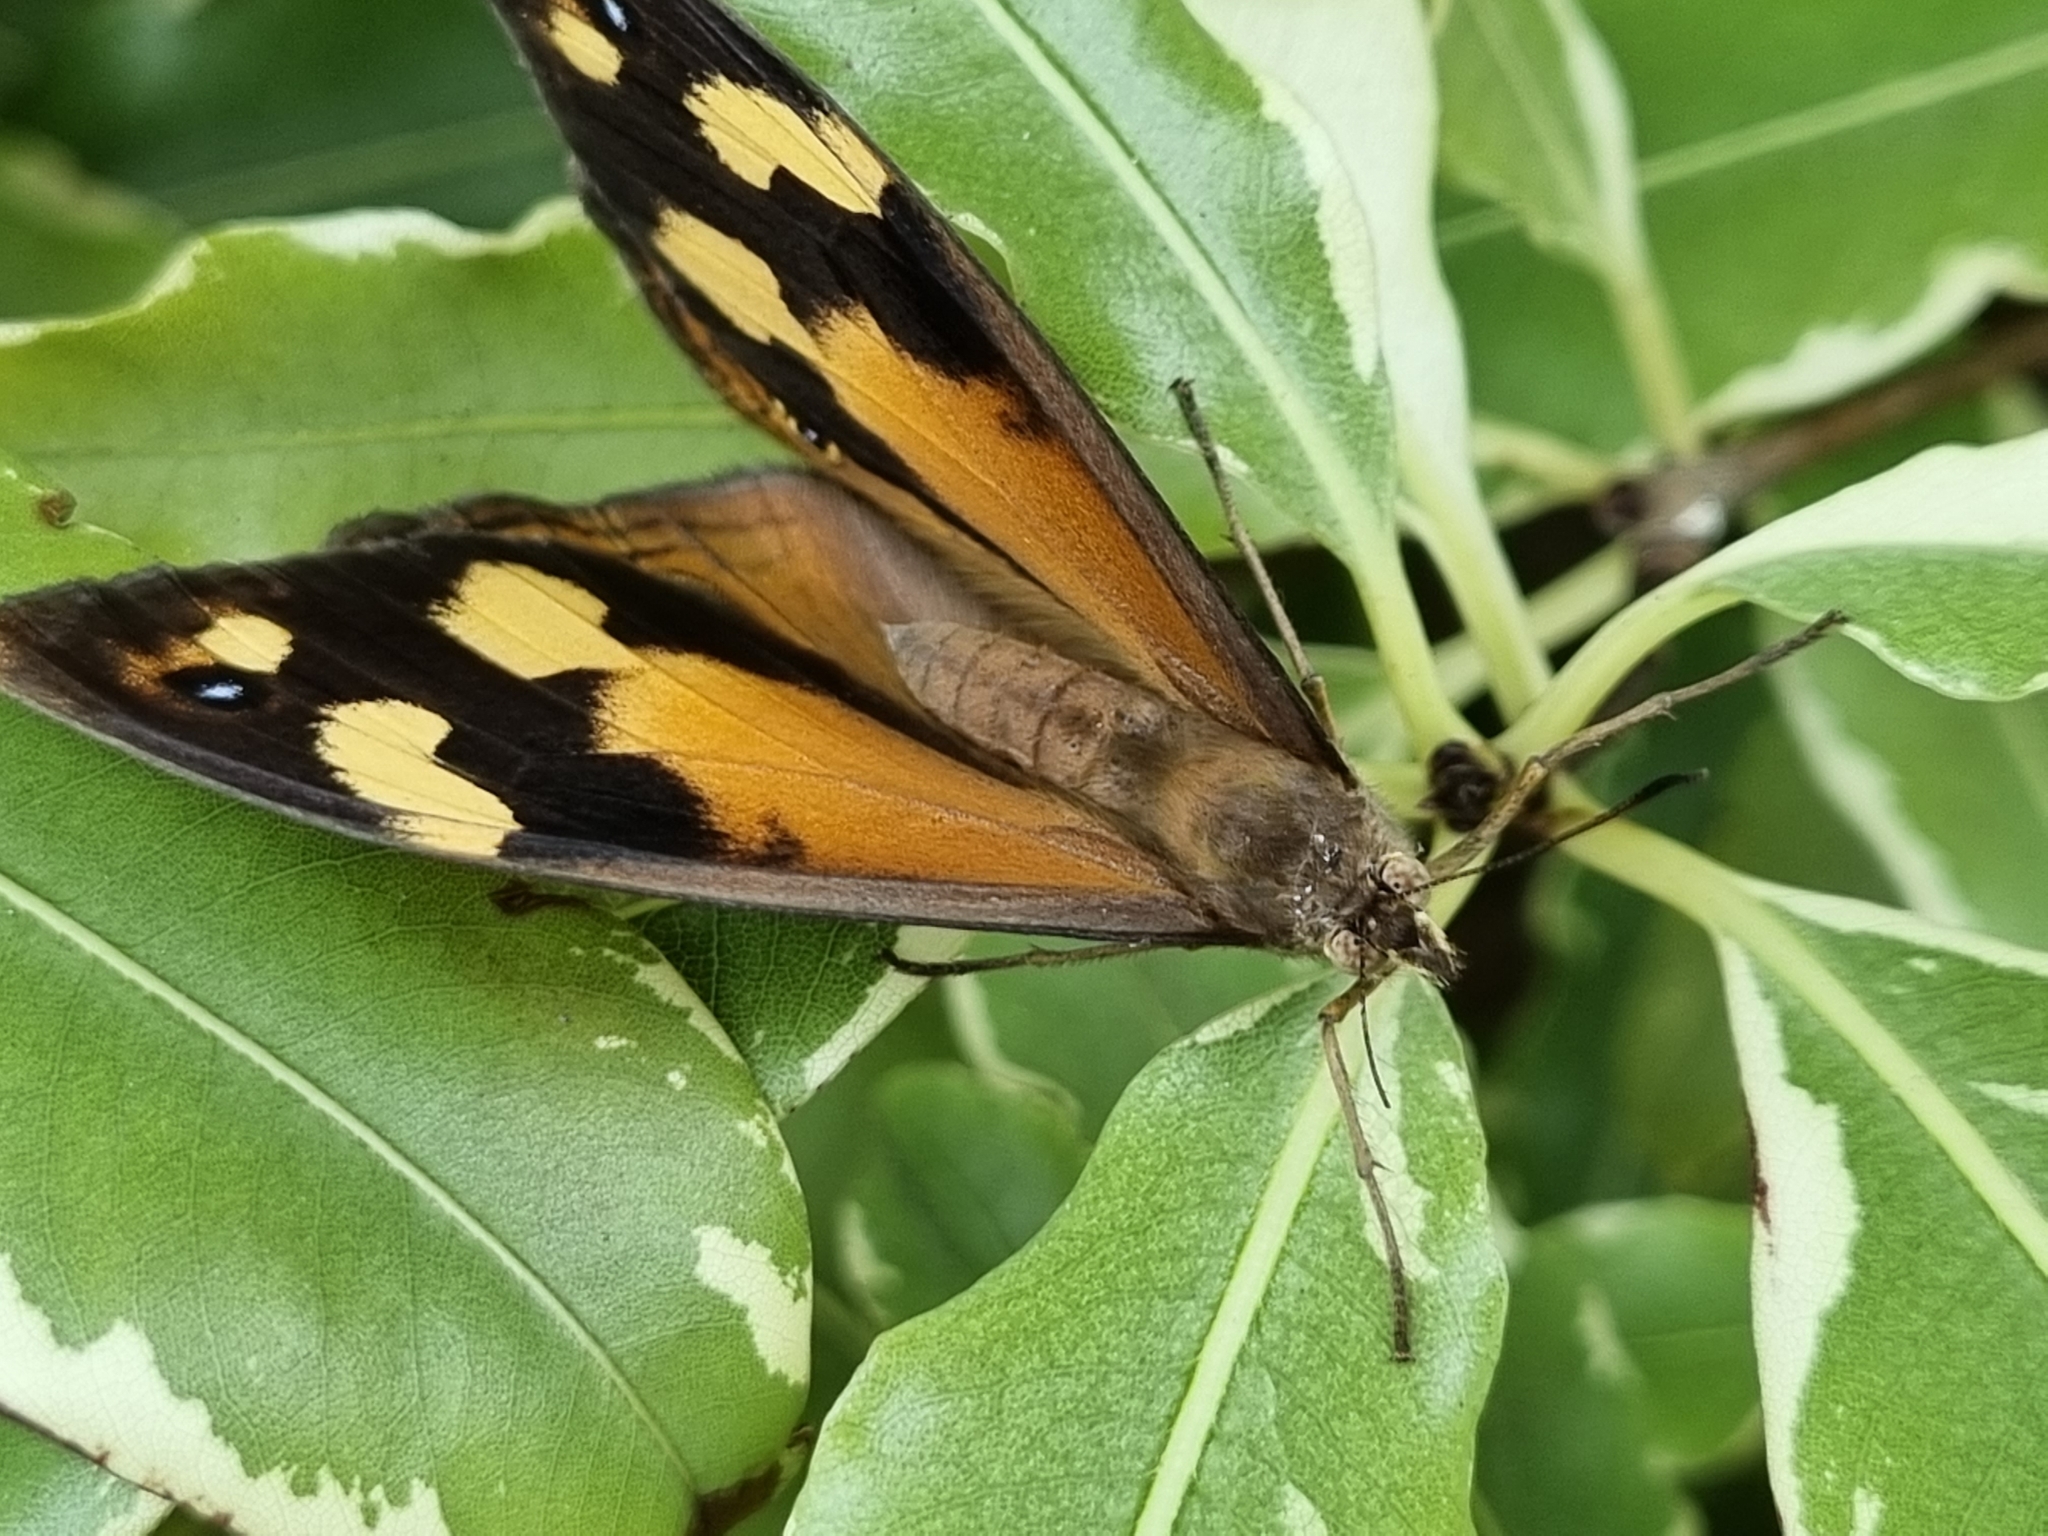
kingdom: Animalia
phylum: Arthropoda
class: Insecta
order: Lepidoptera
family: Nymphalidae
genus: Heteronympha
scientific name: Heteronympha merope
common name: Common brown
